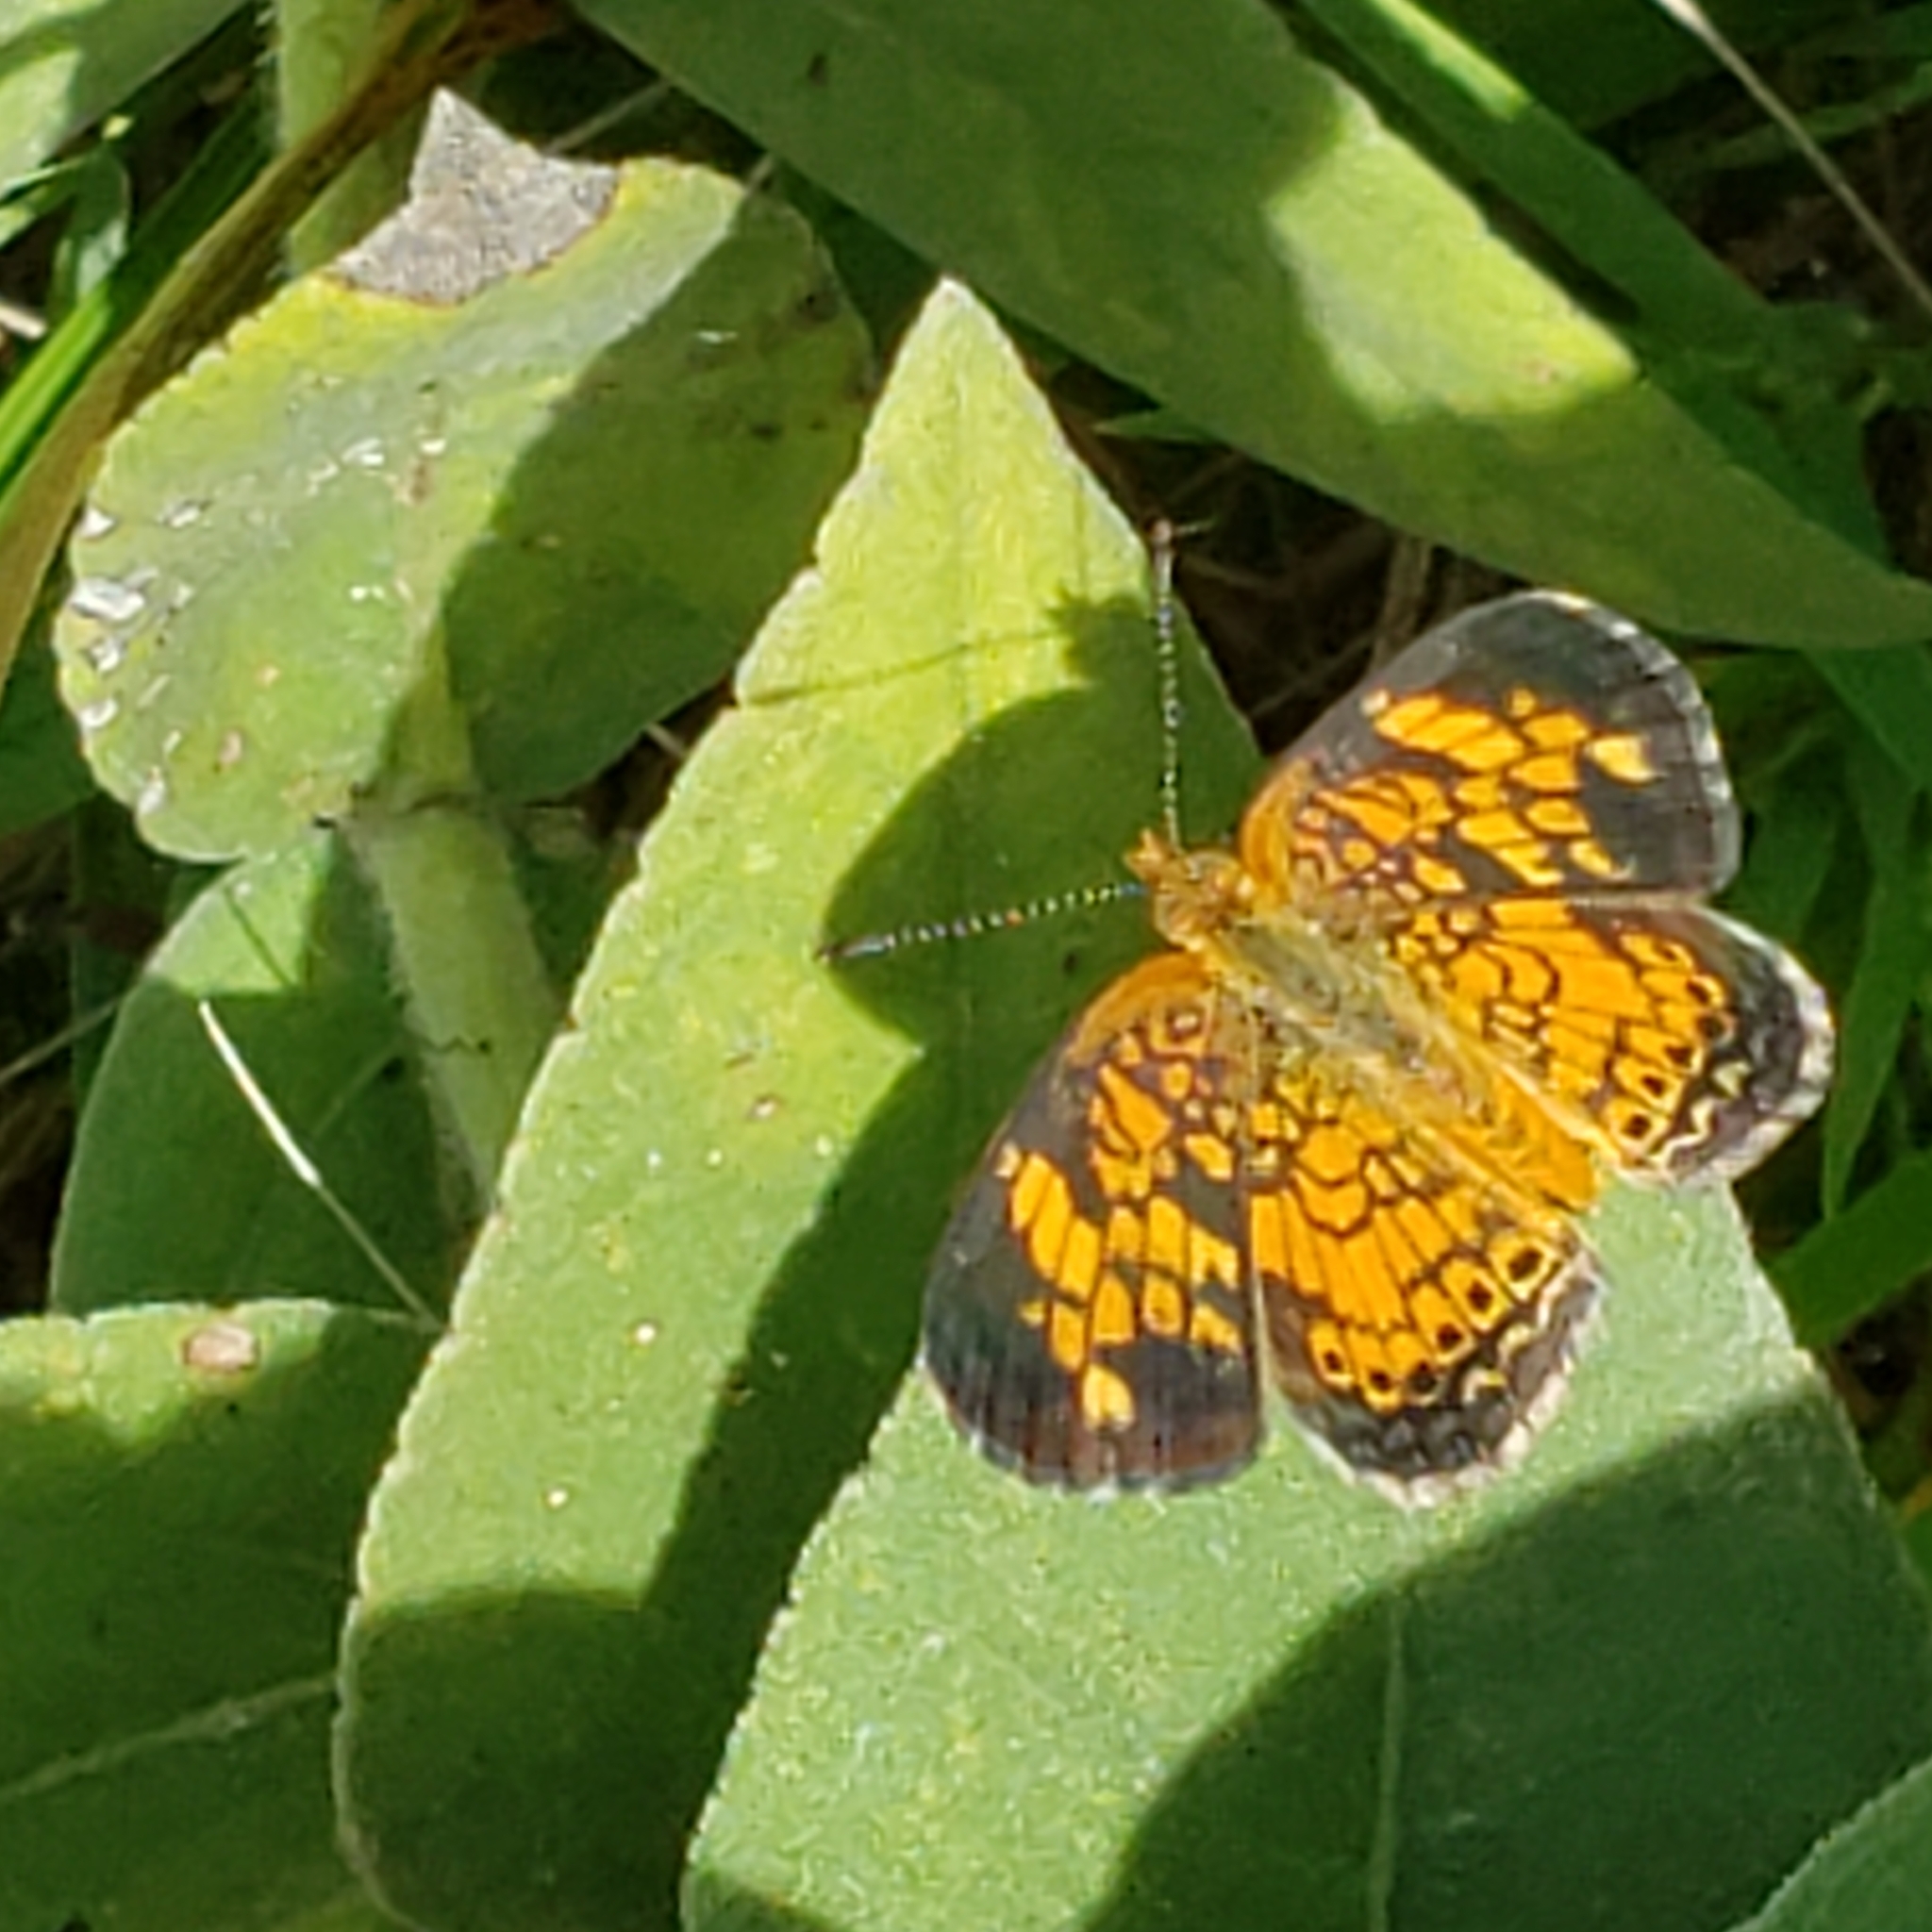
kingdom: Animalia
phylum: Arthropoda
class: Insecta
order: Lepidoptera
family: Nymphalidae
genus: Phyciodes
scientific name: Phyciodes tharos
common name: Pearl crescent
